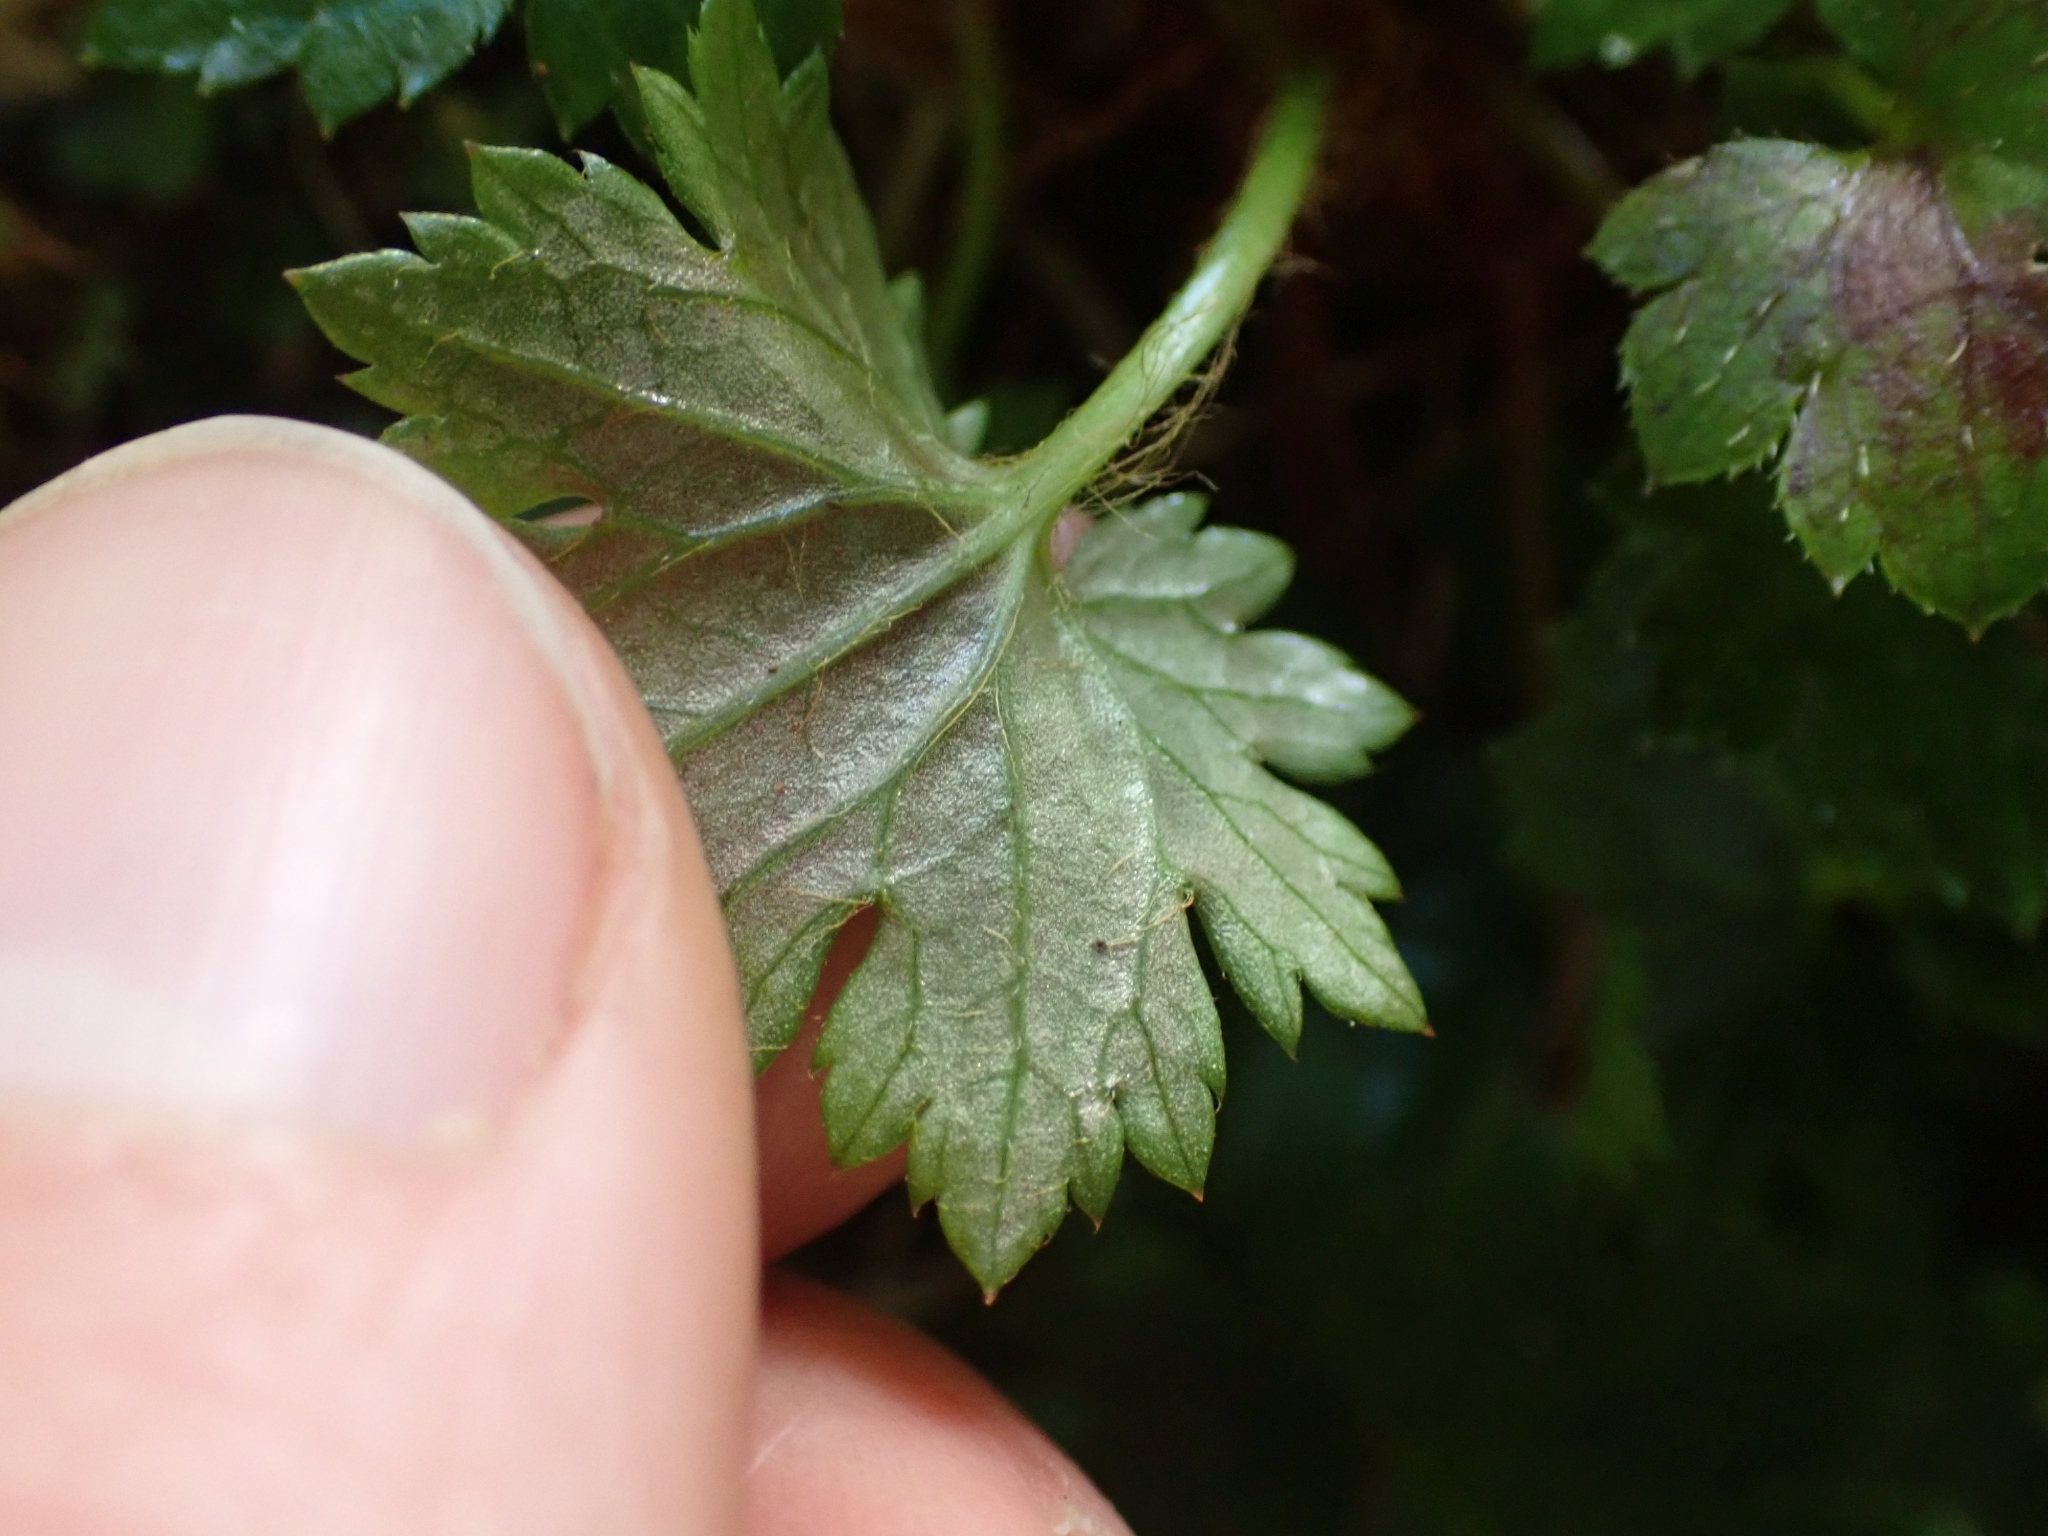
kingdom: Plantae
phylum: Tracheophyta
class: Magnoliopsida
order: Saxifragales
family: Saxifragaceae
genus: Boykinia
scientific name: Boykinia occidentalis
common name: Coast boykinia
